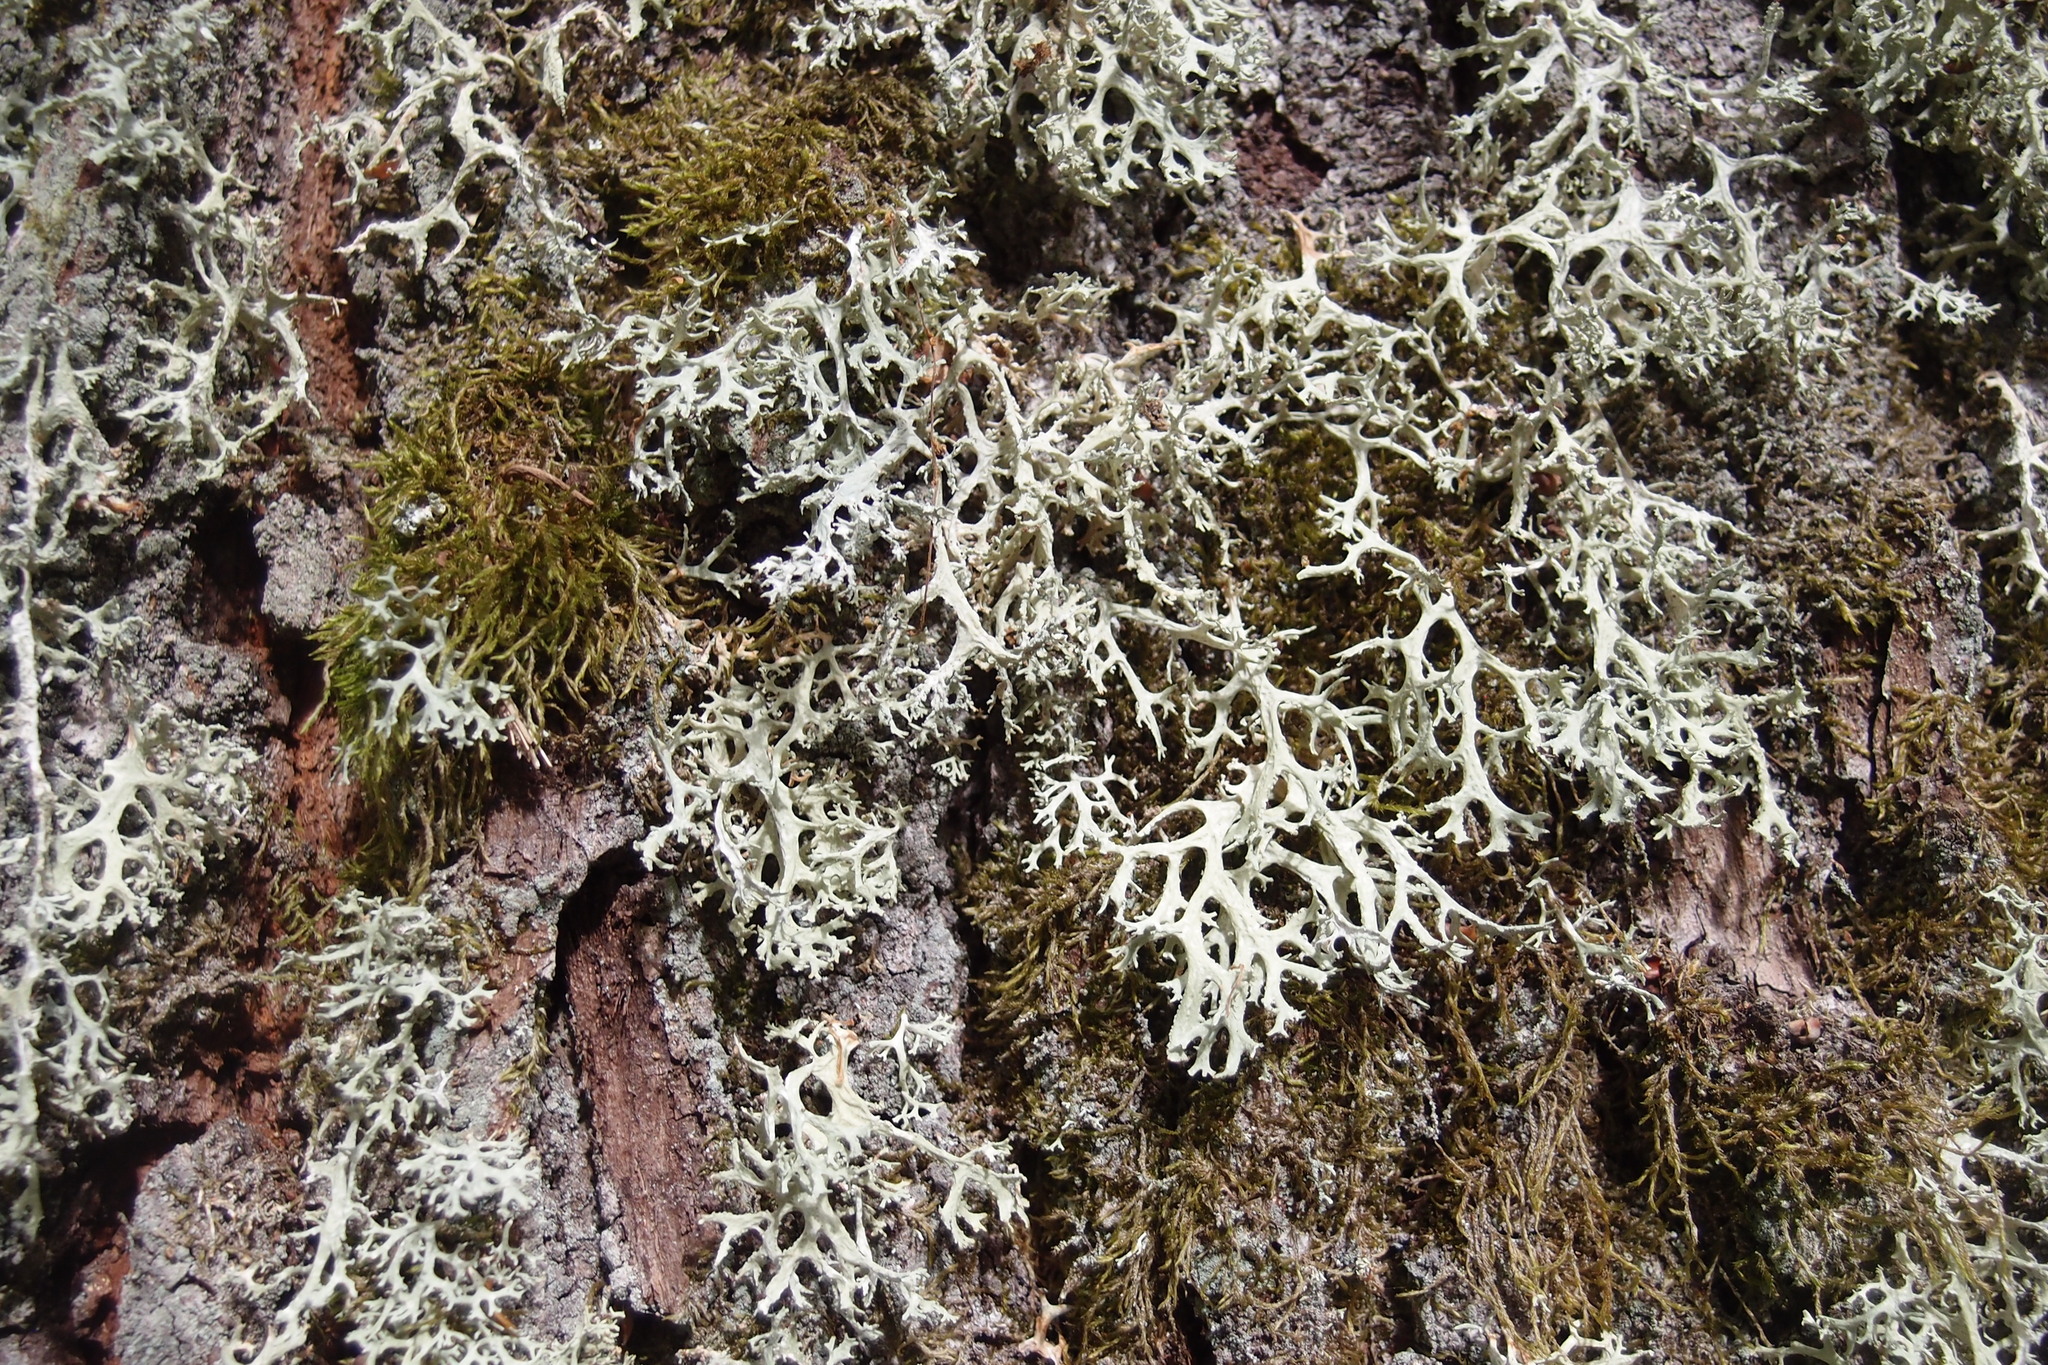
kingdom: Fungi
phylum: Ascomycota
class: Lecanoromycetes
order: Lecanorales
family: Parmeliaceae
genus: Evernia
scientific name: Evernia prunastri
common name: Oak moss
